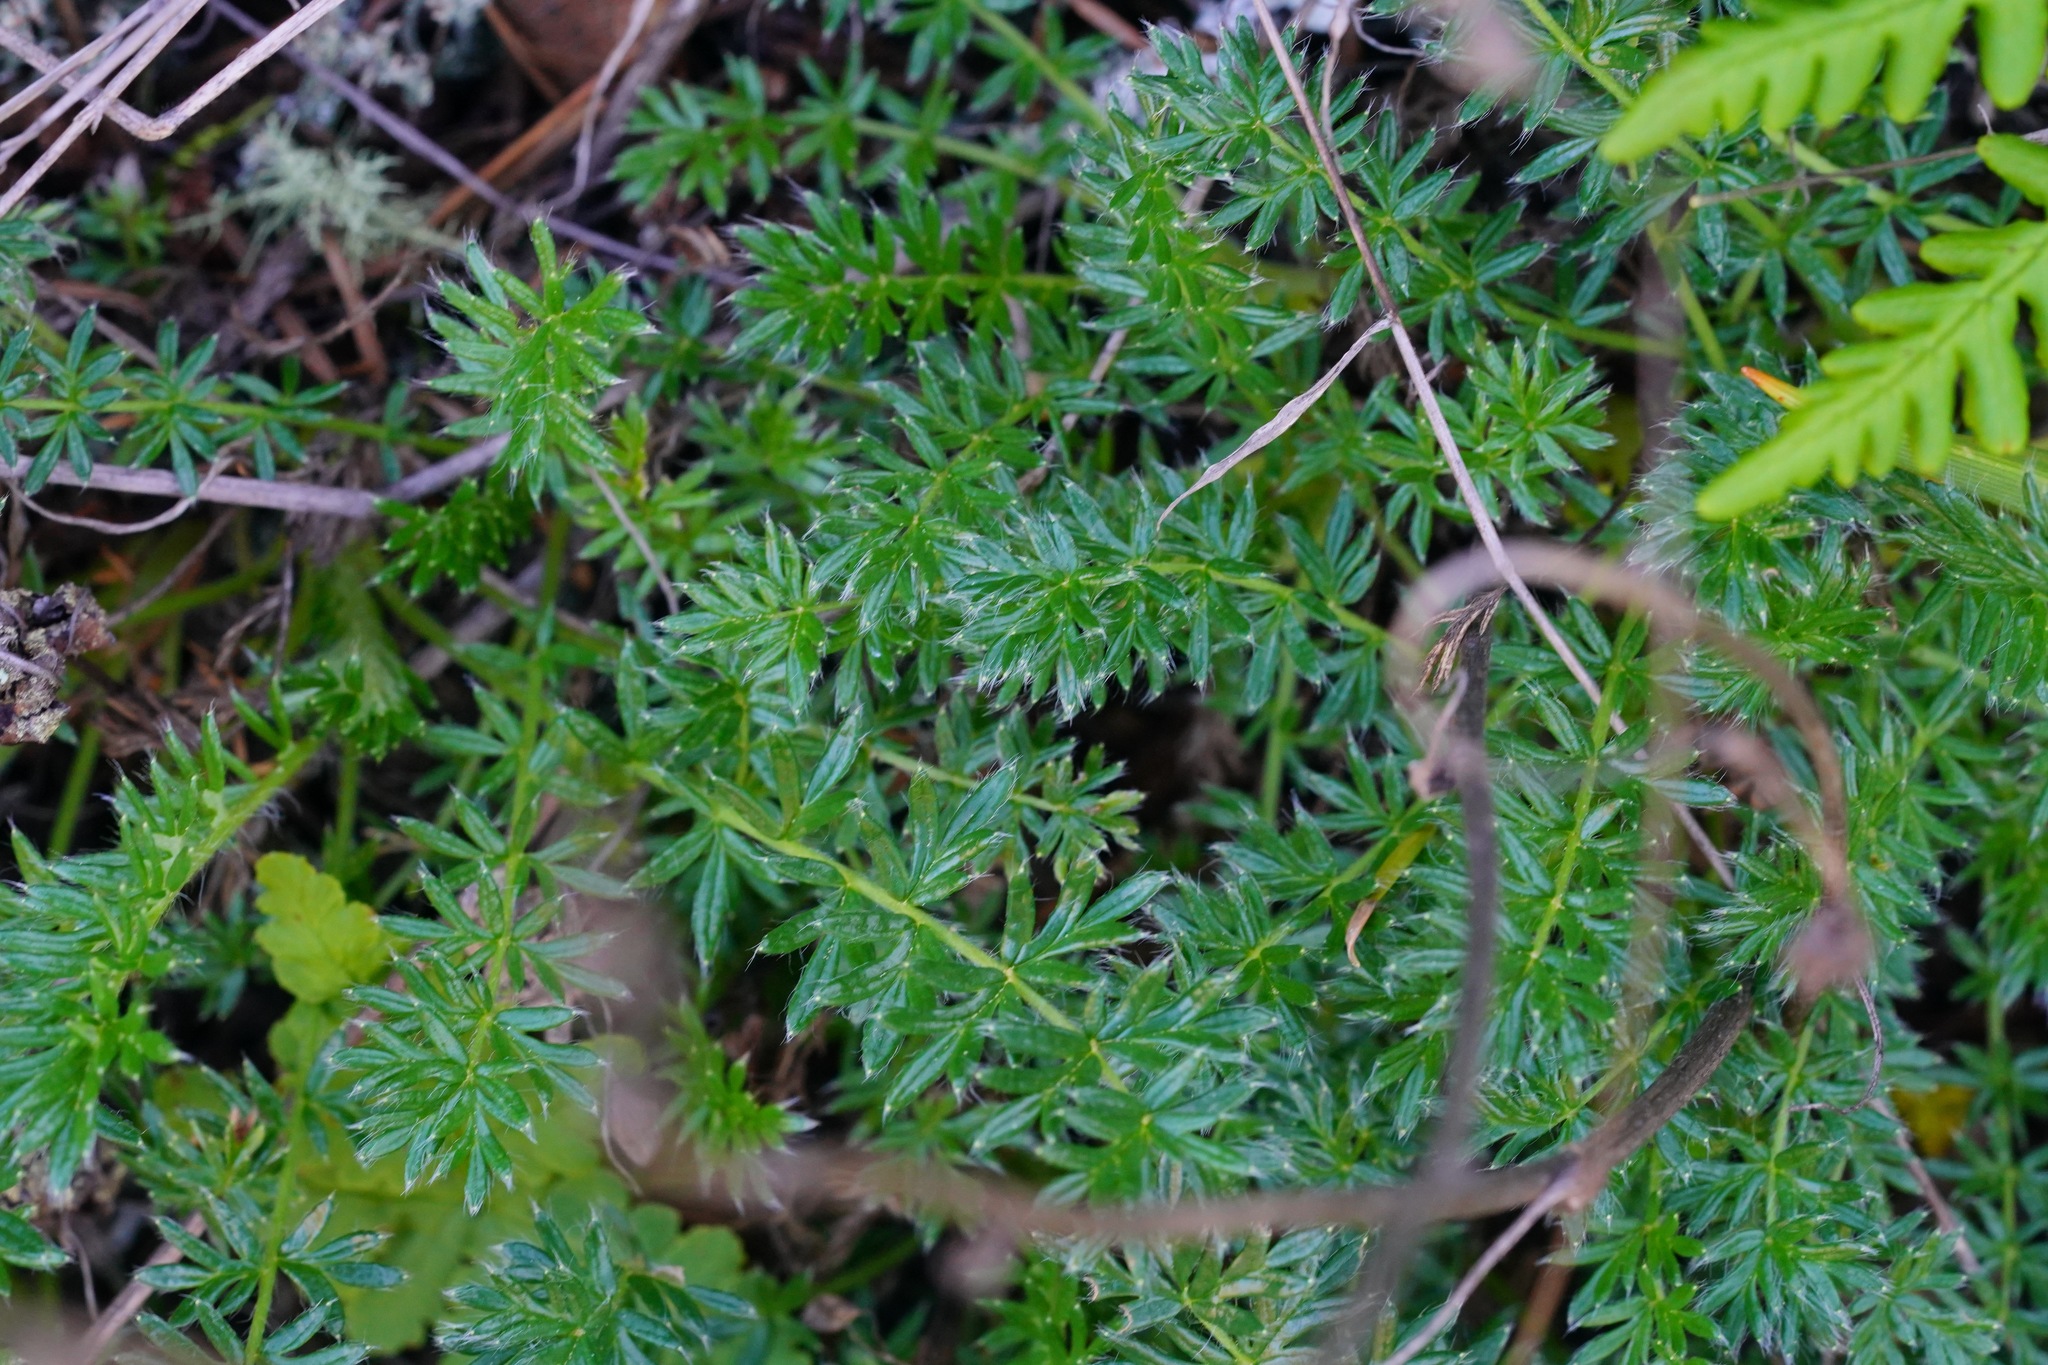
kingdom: Plantae
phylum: Tracheophyta
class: Magnoliopsida
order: Rosales
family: Rosaceae
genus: Acaena
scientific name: Acaena pinnatifida
